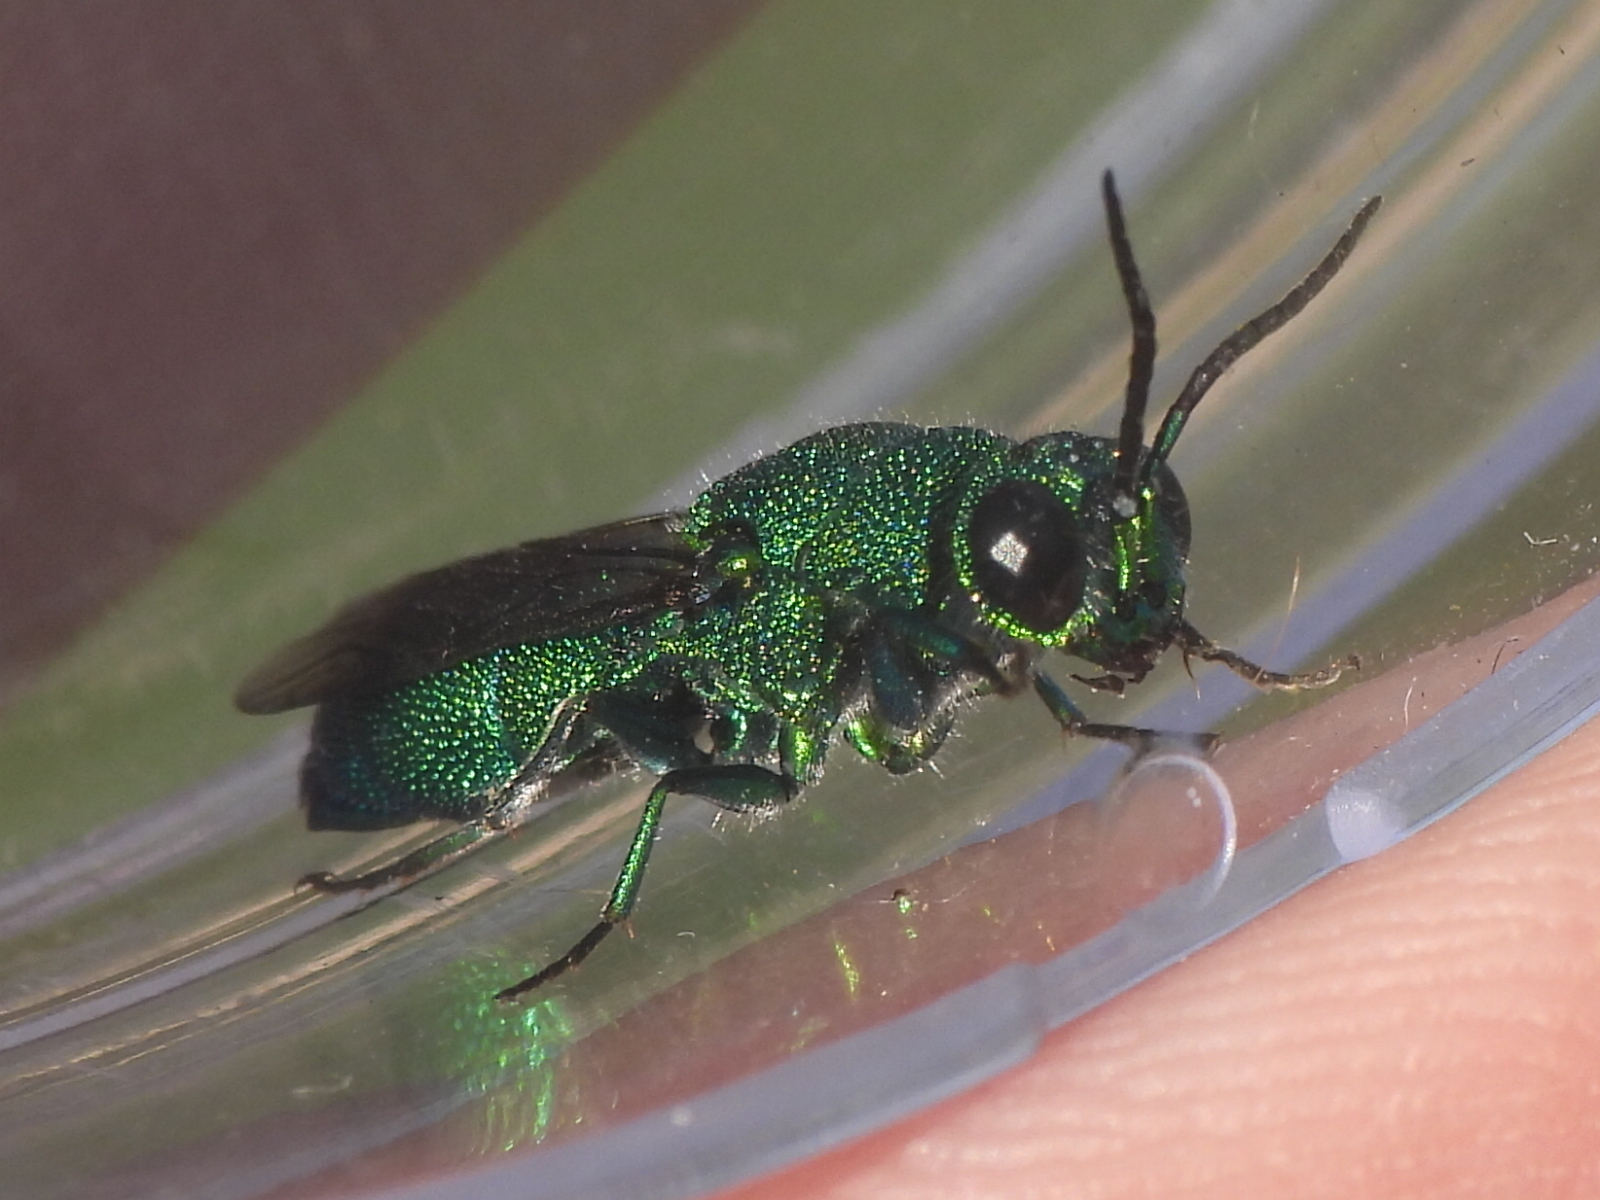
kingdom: Animalia
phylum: Arthropoda
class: Insecta
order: Hymenoptera
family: Chrysididae
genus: Chrysis
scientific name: Chrysis angolensis
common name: Cuckoo wasp
